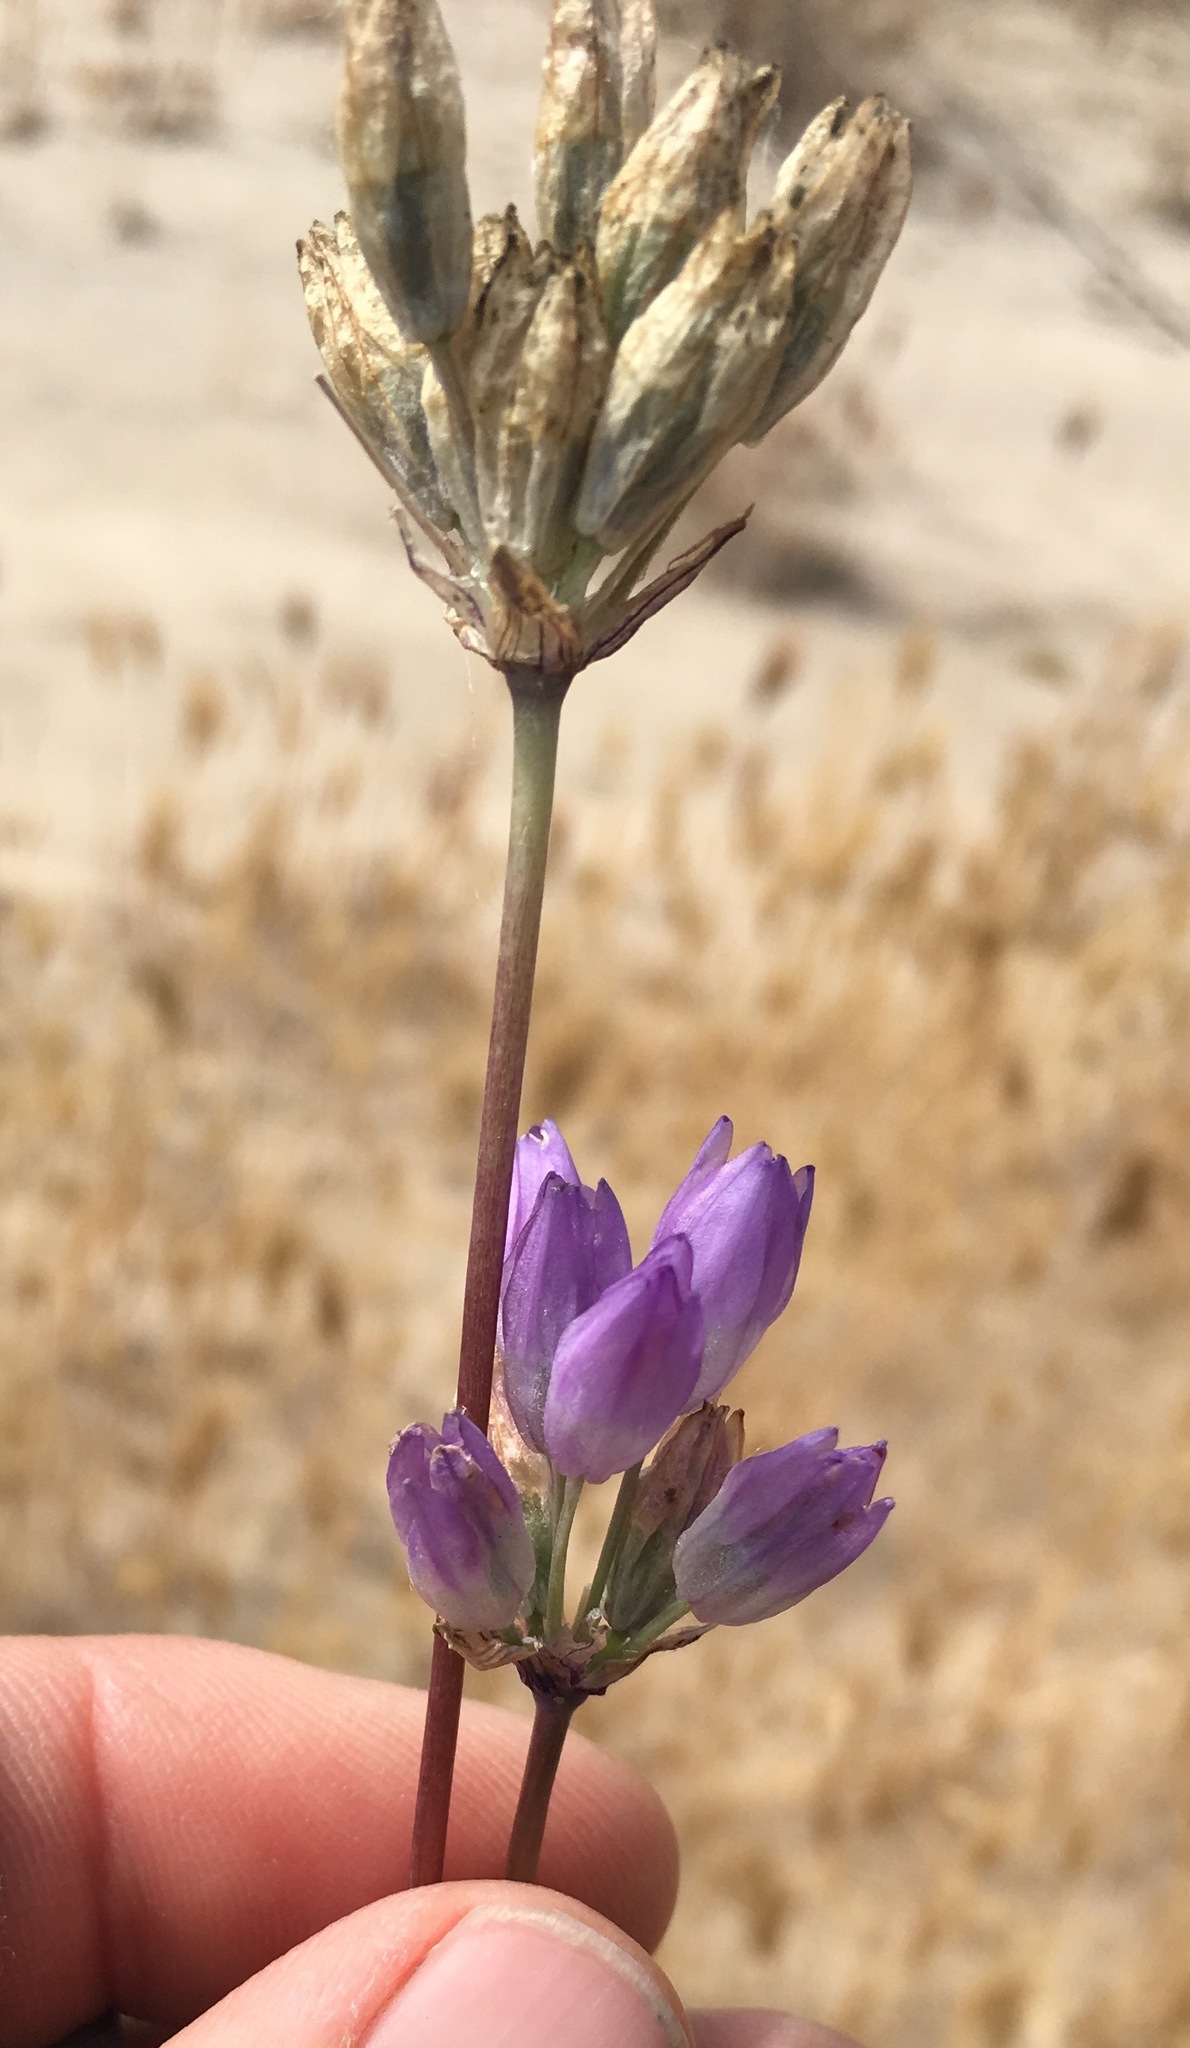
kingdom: Plantae
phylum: Tracheophyta
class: Liliopsida
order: Asparagales
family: Asparagaceae
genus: Dipterostemon
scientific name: Dipterostemon capitatus
